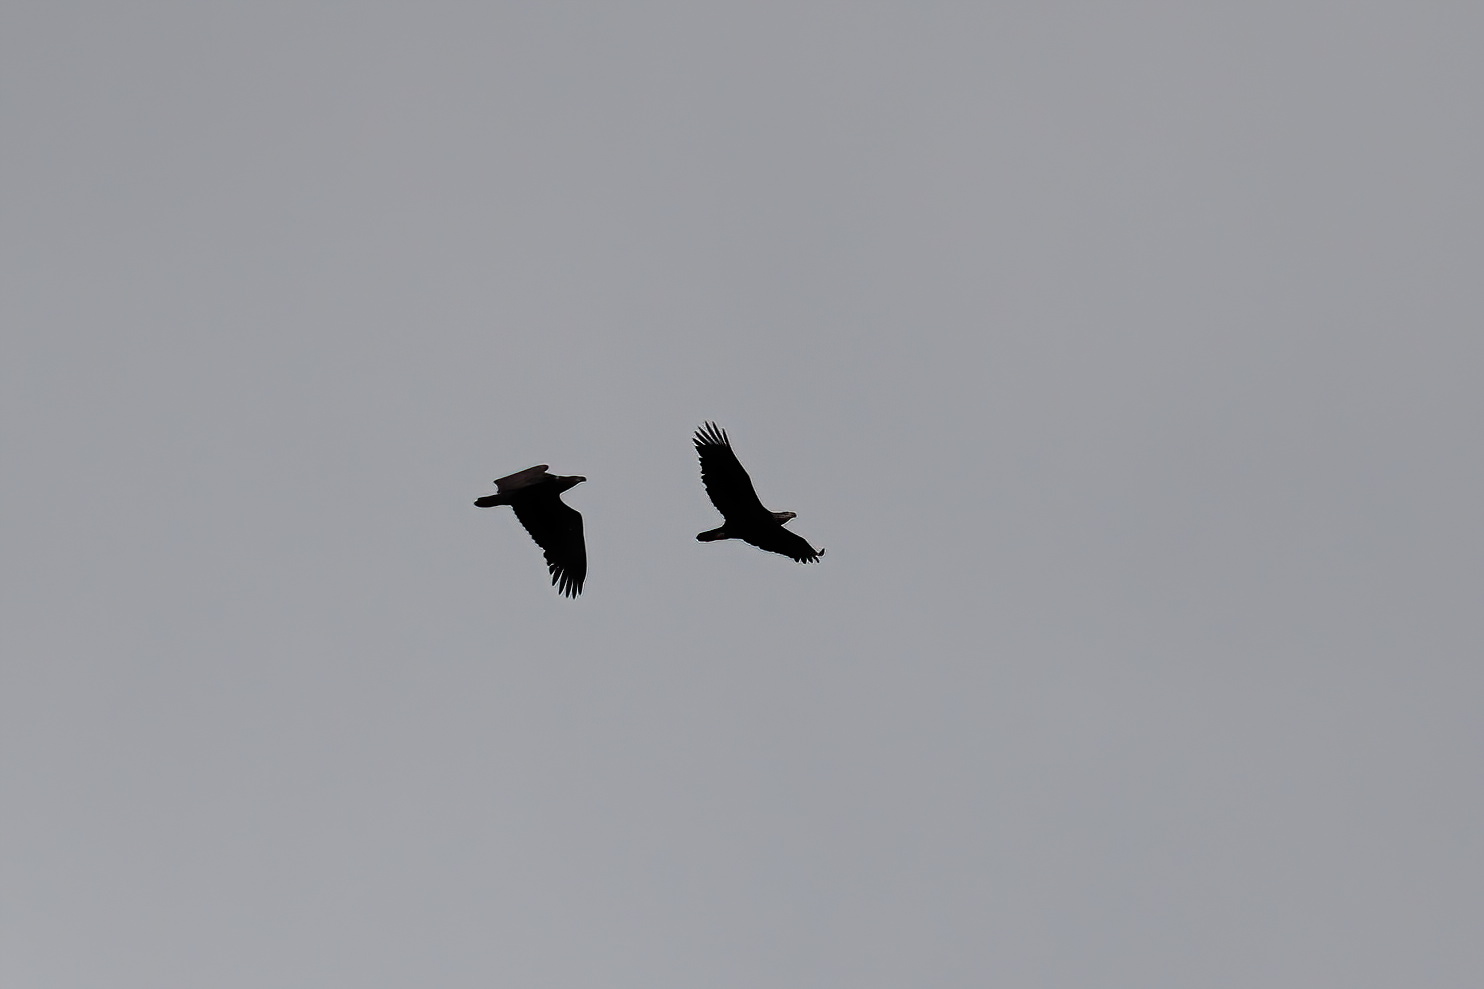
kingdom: Animalia
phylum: Chordata
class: Aves
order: Accipitriformes
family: Accipitridae
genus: Haliaeetus
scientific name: Haliaeetus leucocephalus
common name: Bald eagle
